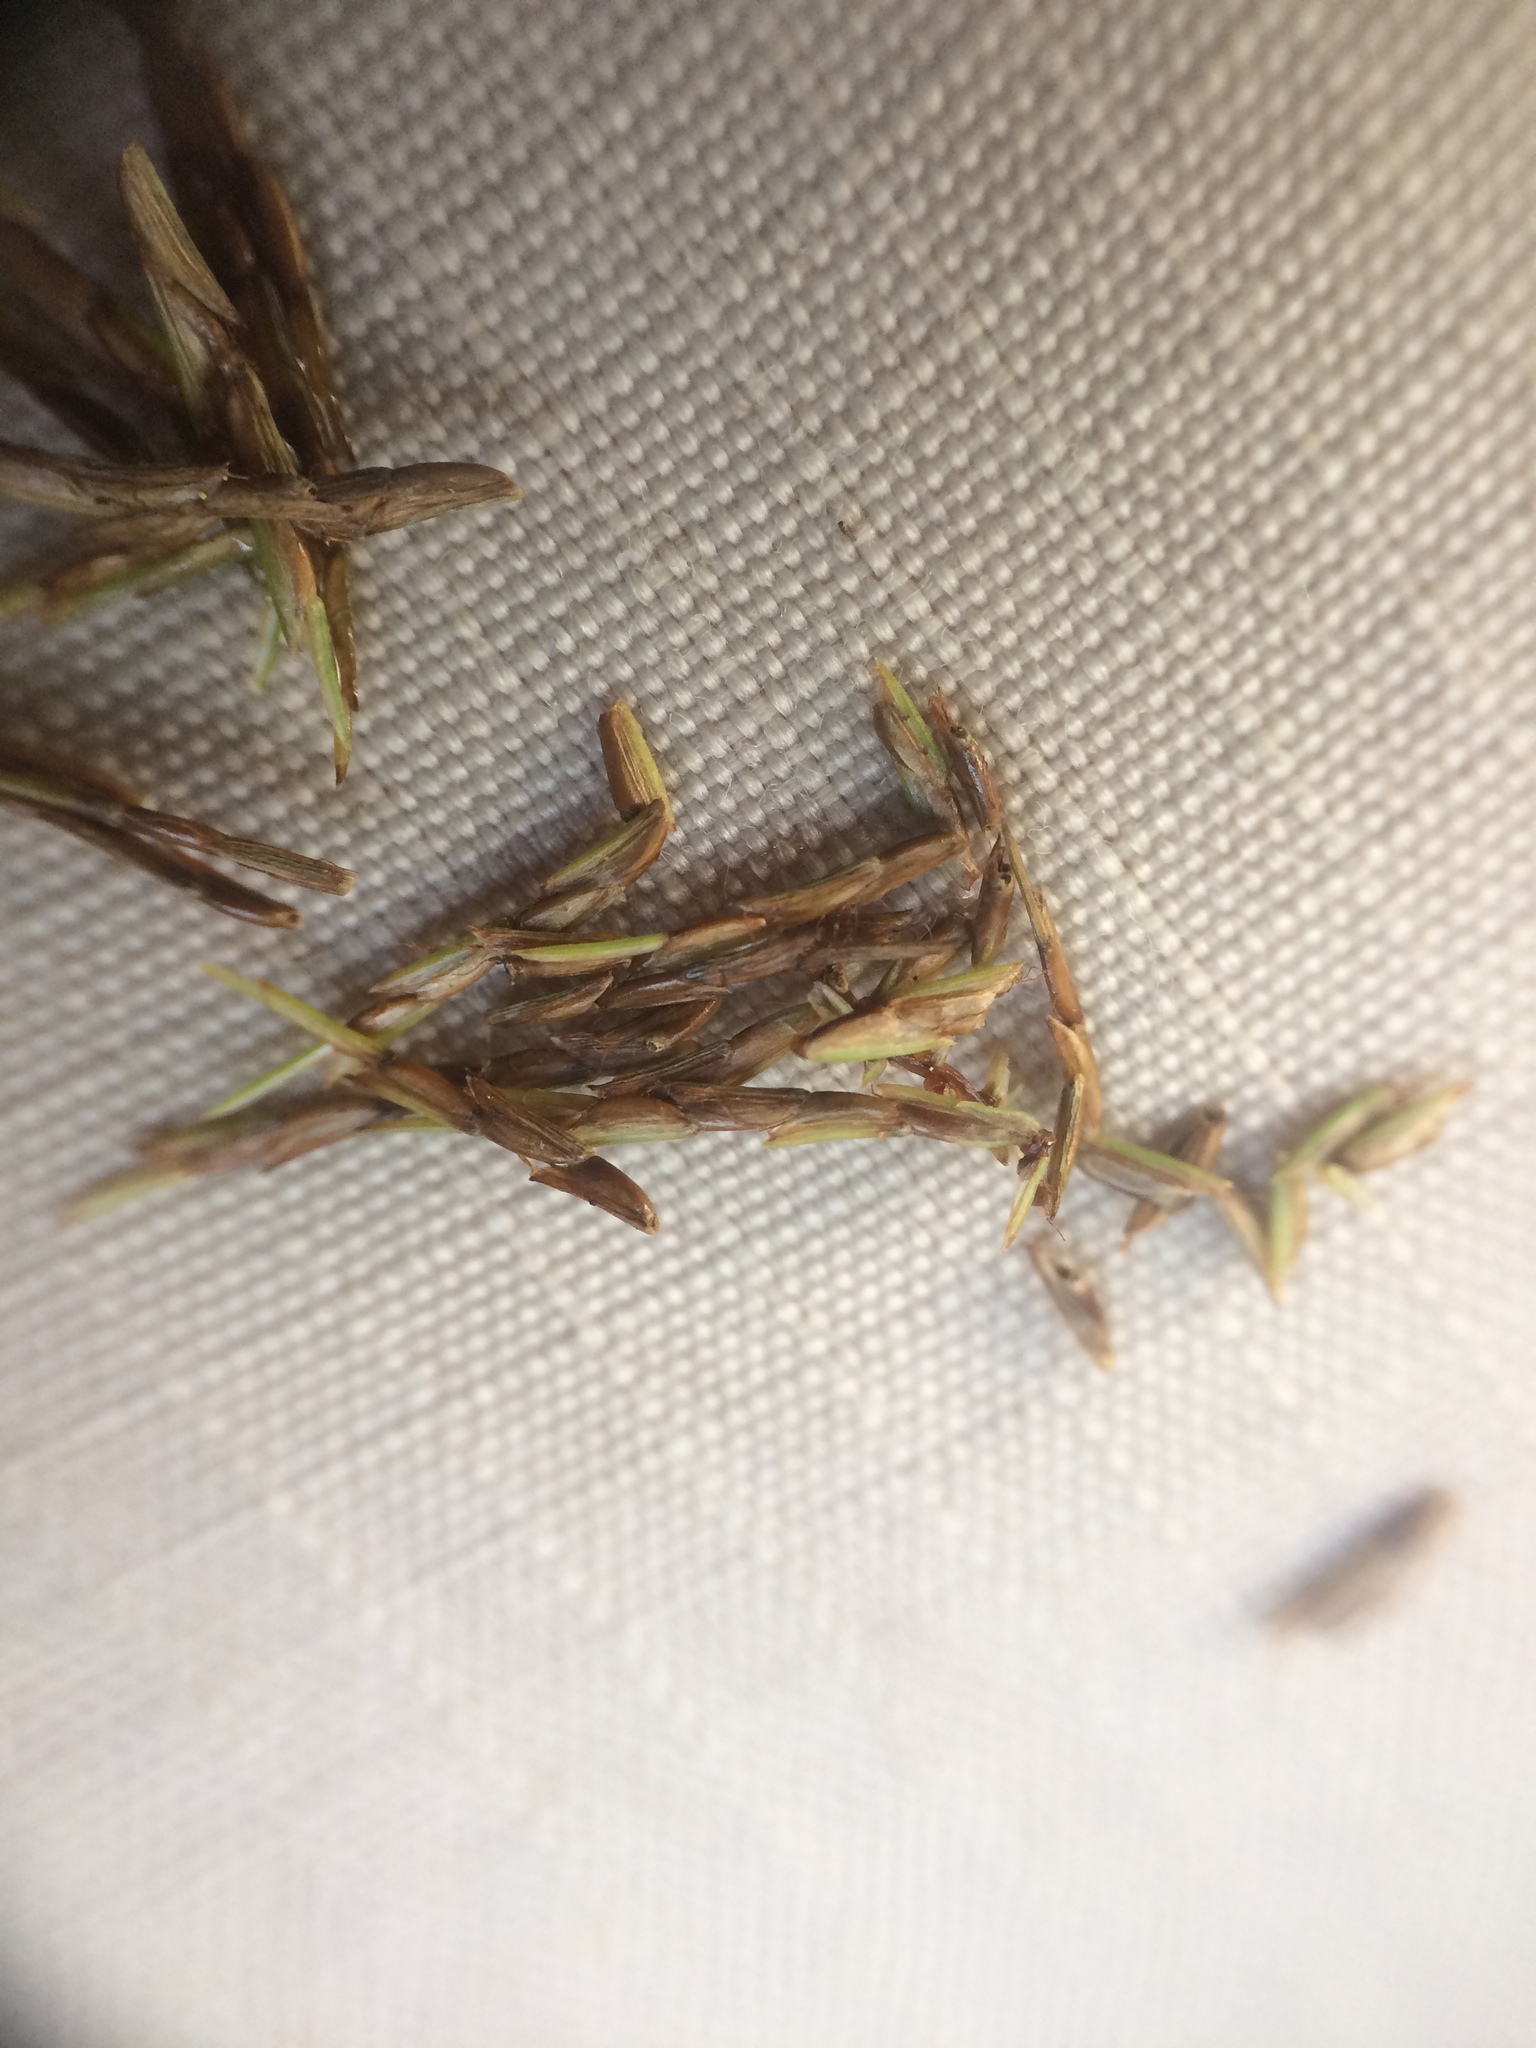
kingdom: Plantae
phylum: Tracheophyta
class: Liliopsida
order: Poales
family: Cyperaceae
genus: Cyperus
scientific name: Cyperus odoratus
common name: Fragrant flatsedge
